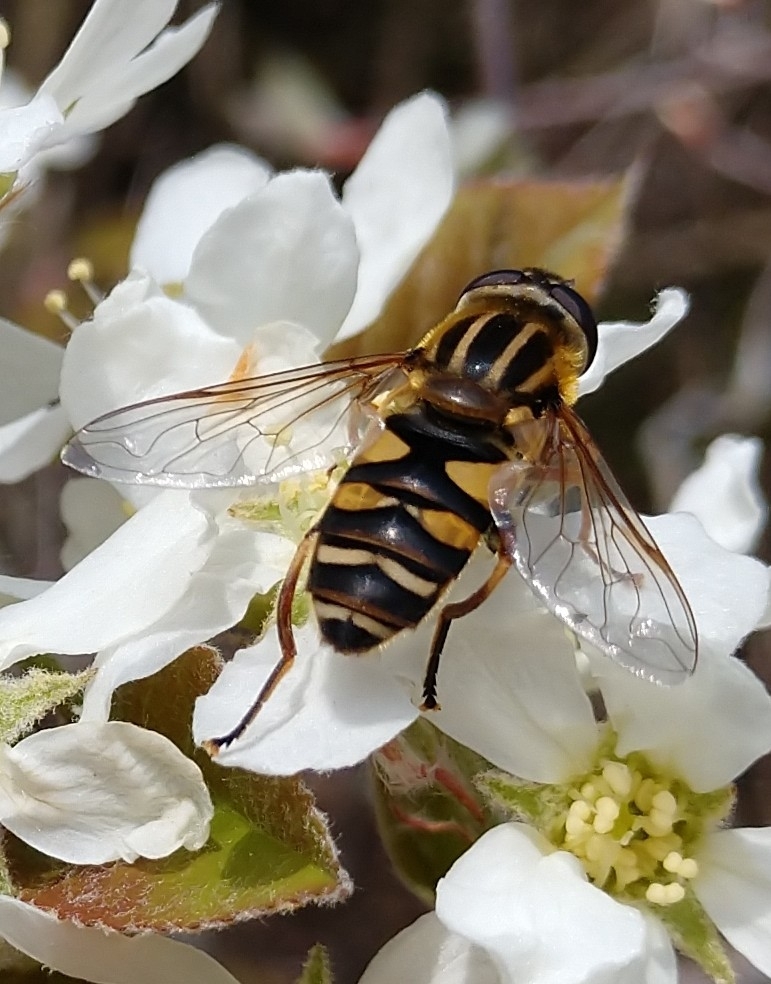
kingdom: Animalia
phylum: Arthropoda
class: Insecta
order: Diptera
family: Syrphidae
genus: Helophilus
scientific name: Helophilus fasciatus
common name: Narrow-headed marsh fly
